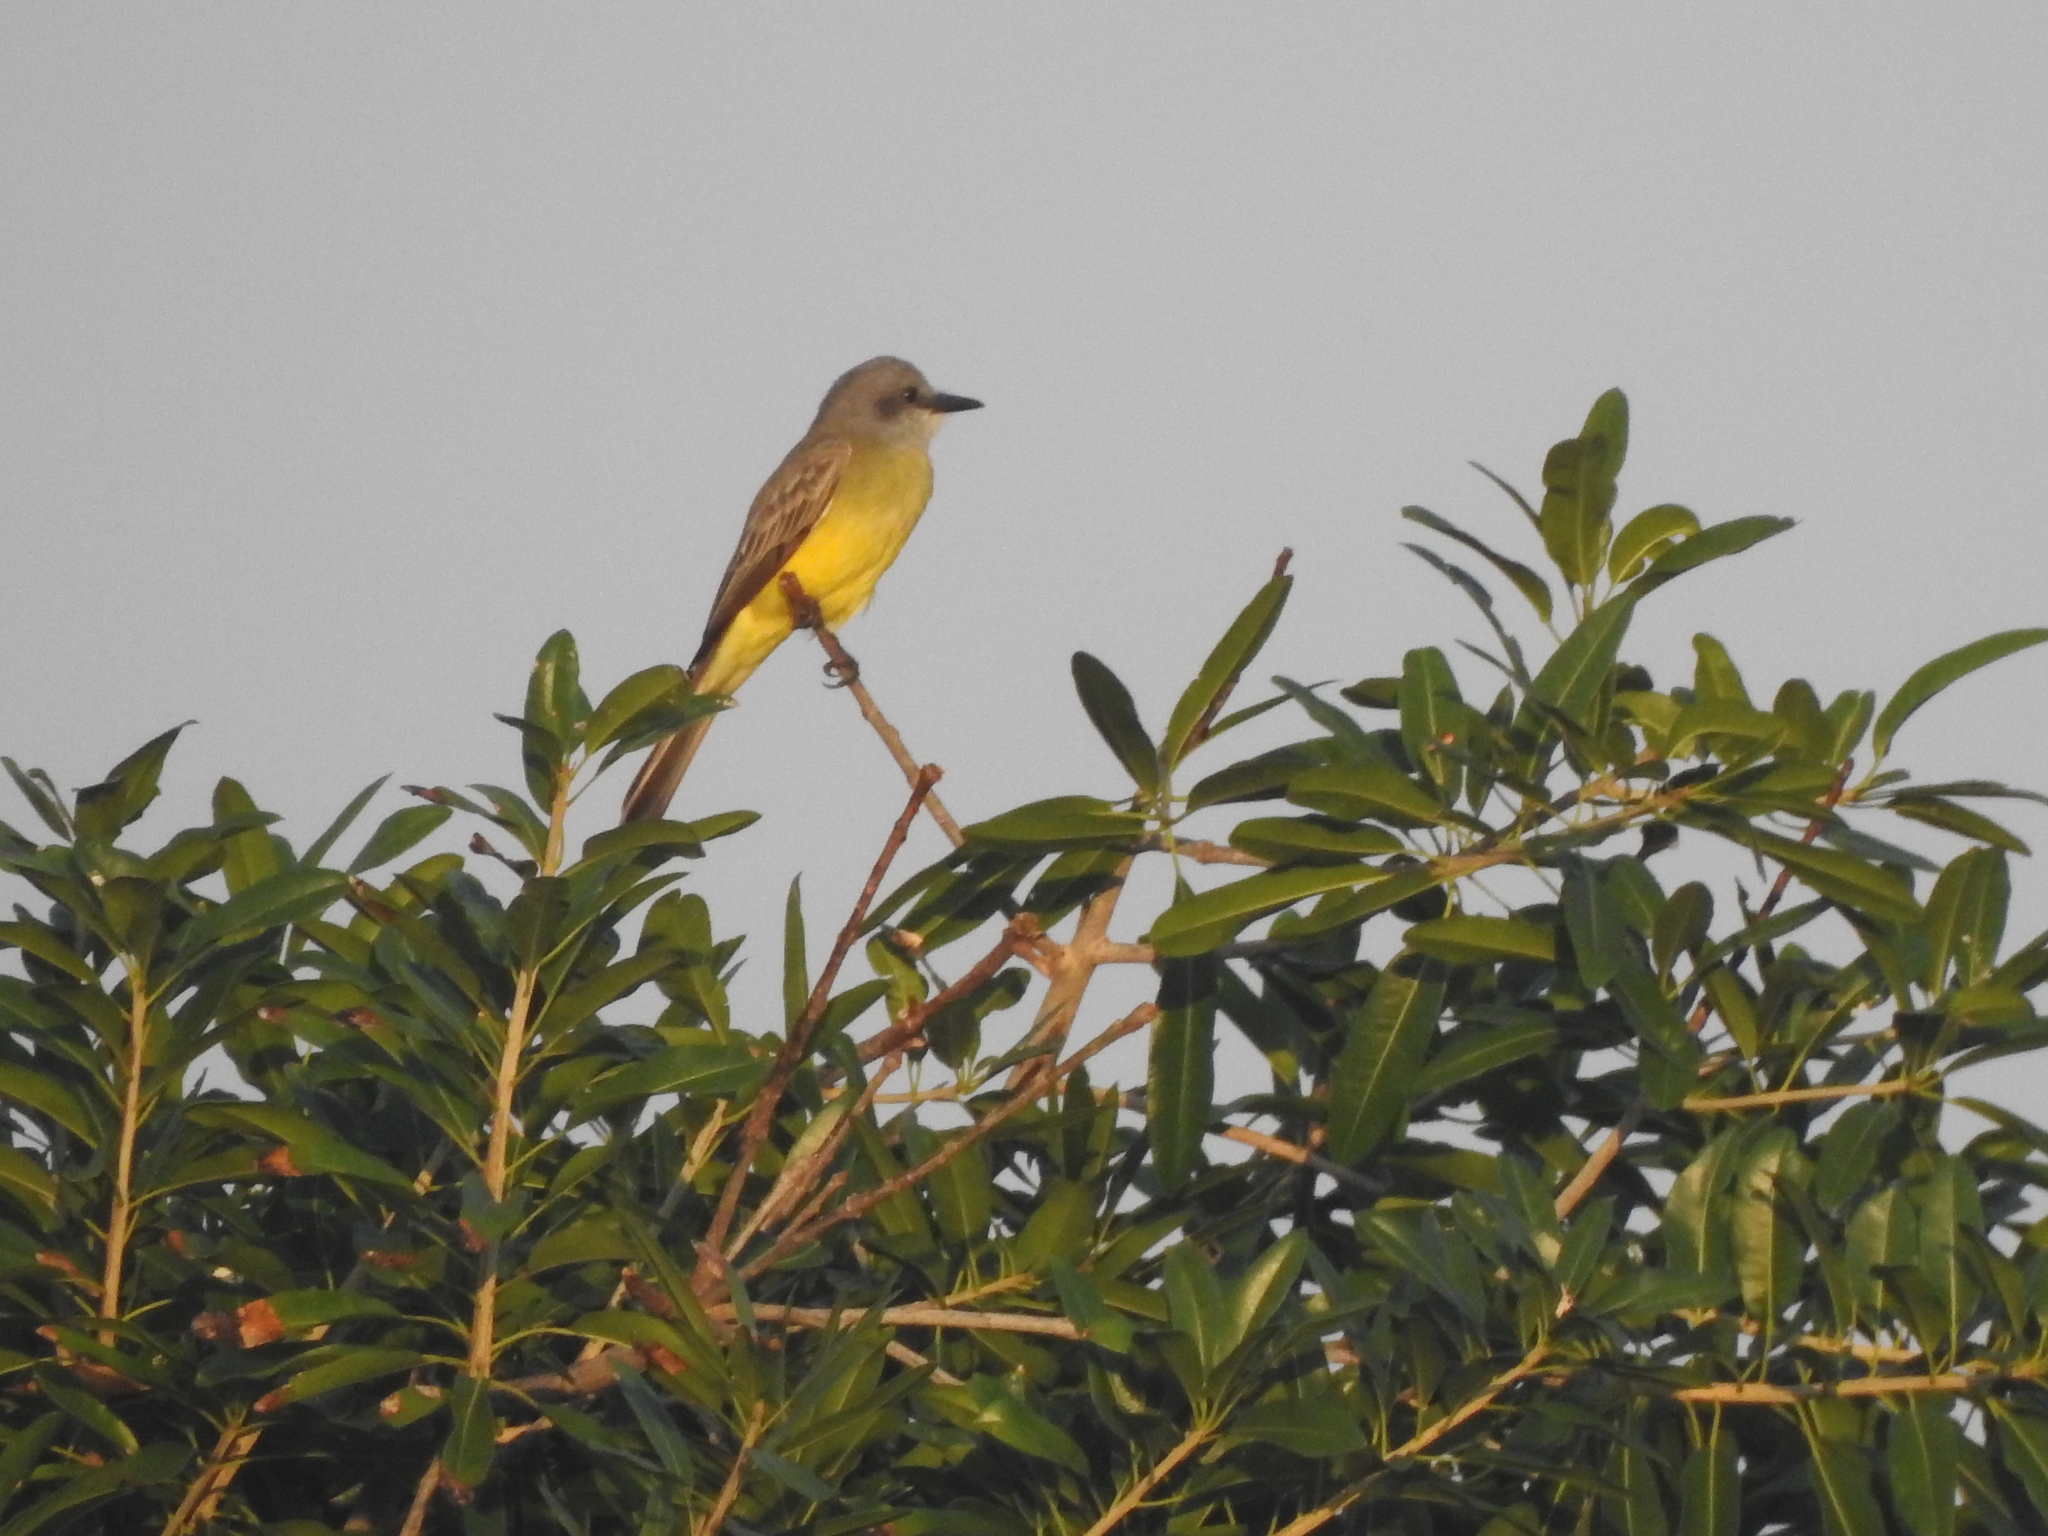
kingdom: Animalia
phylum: Chordata
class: Aves
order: Passeriformes
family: Tyrannidae
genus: Tyrannus
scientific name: Tyrannus melancholicus
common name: Tropical kingbird
